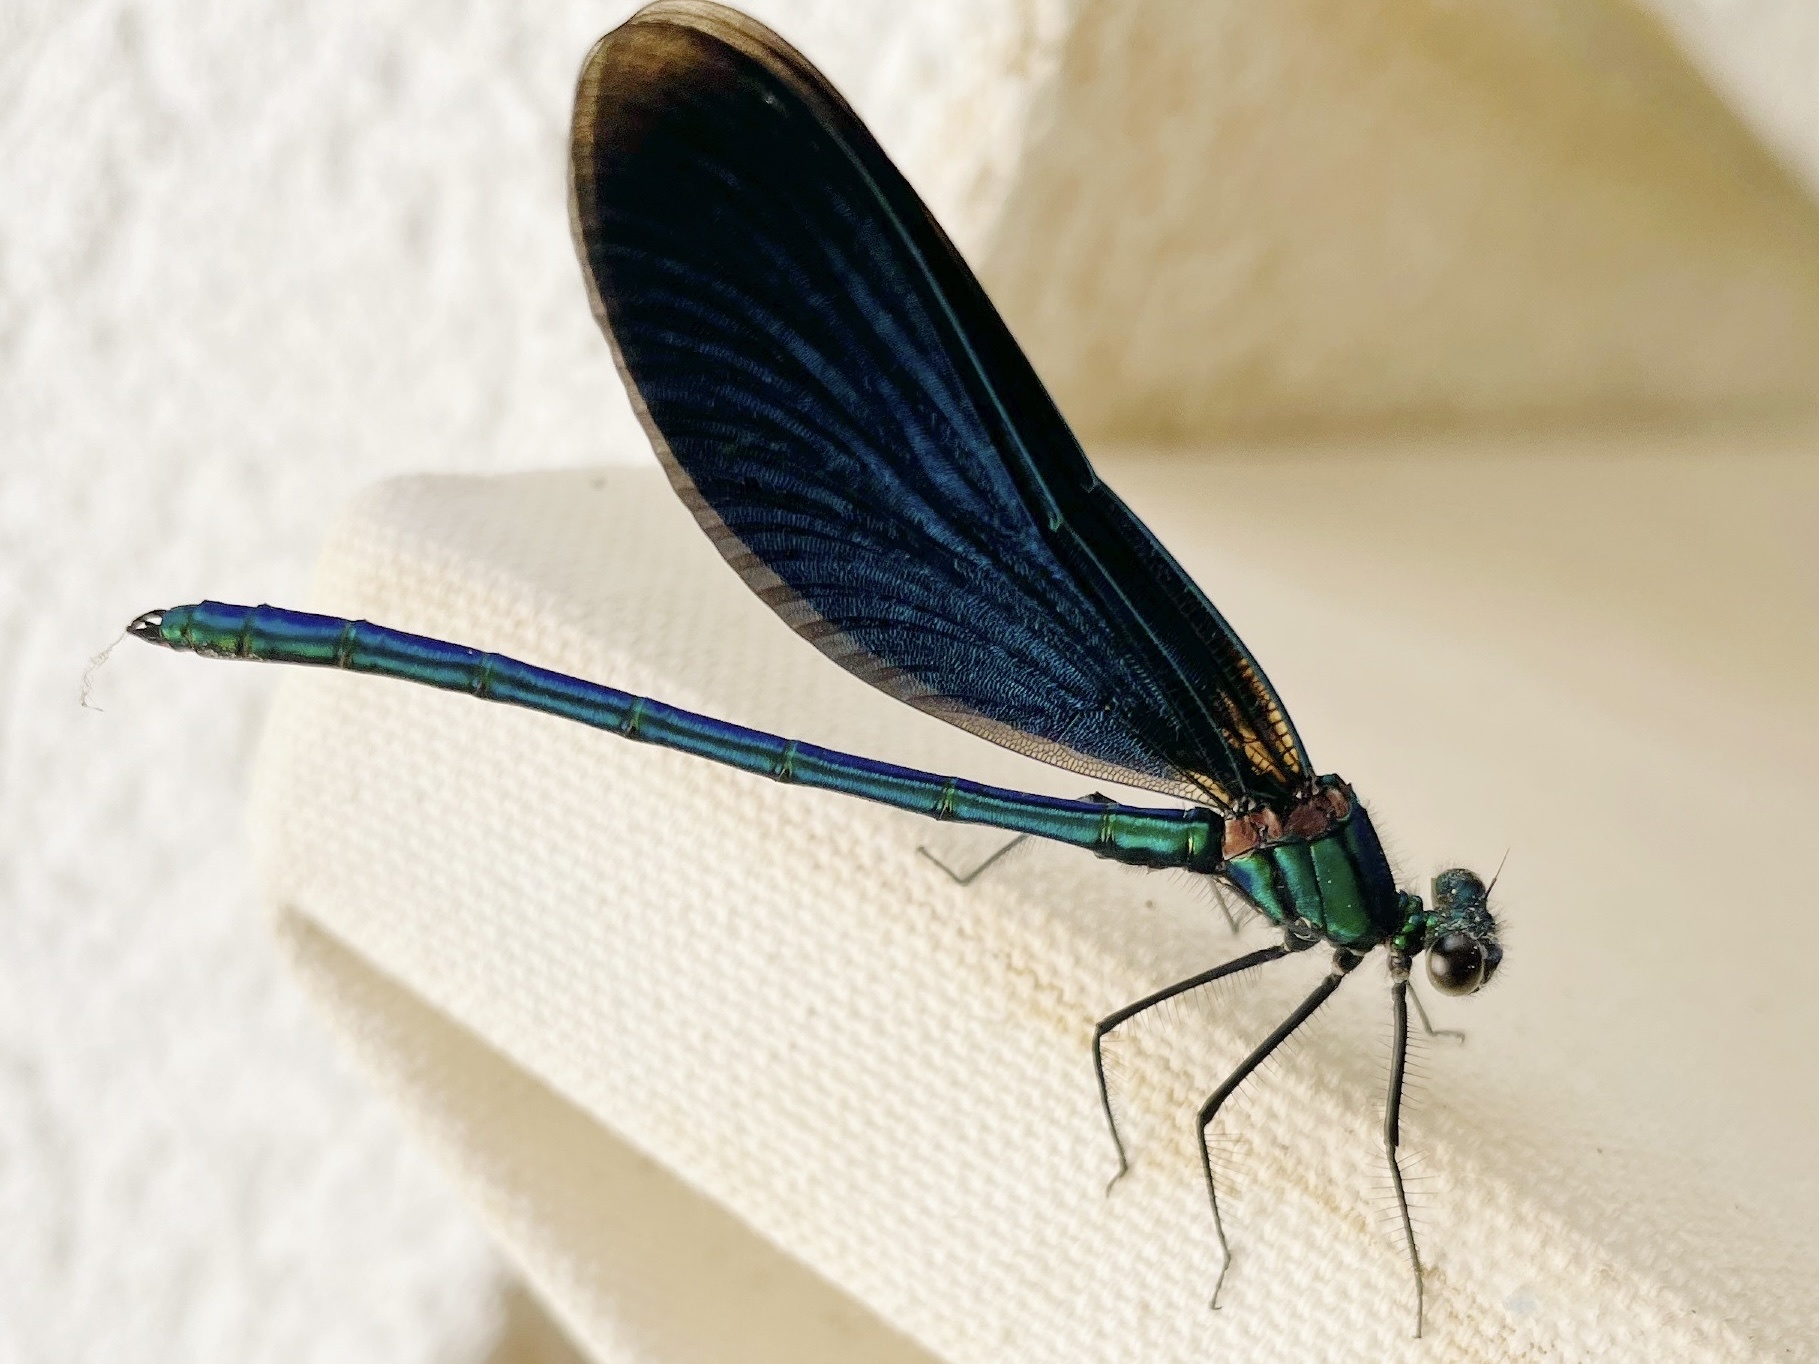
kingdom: Animalia
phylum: Arthropoda
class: Insecta
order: Odonata
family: Calopterygidae
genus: Calopteryx
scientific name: Calopteryx virgo
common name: Beautiful demoiselle
